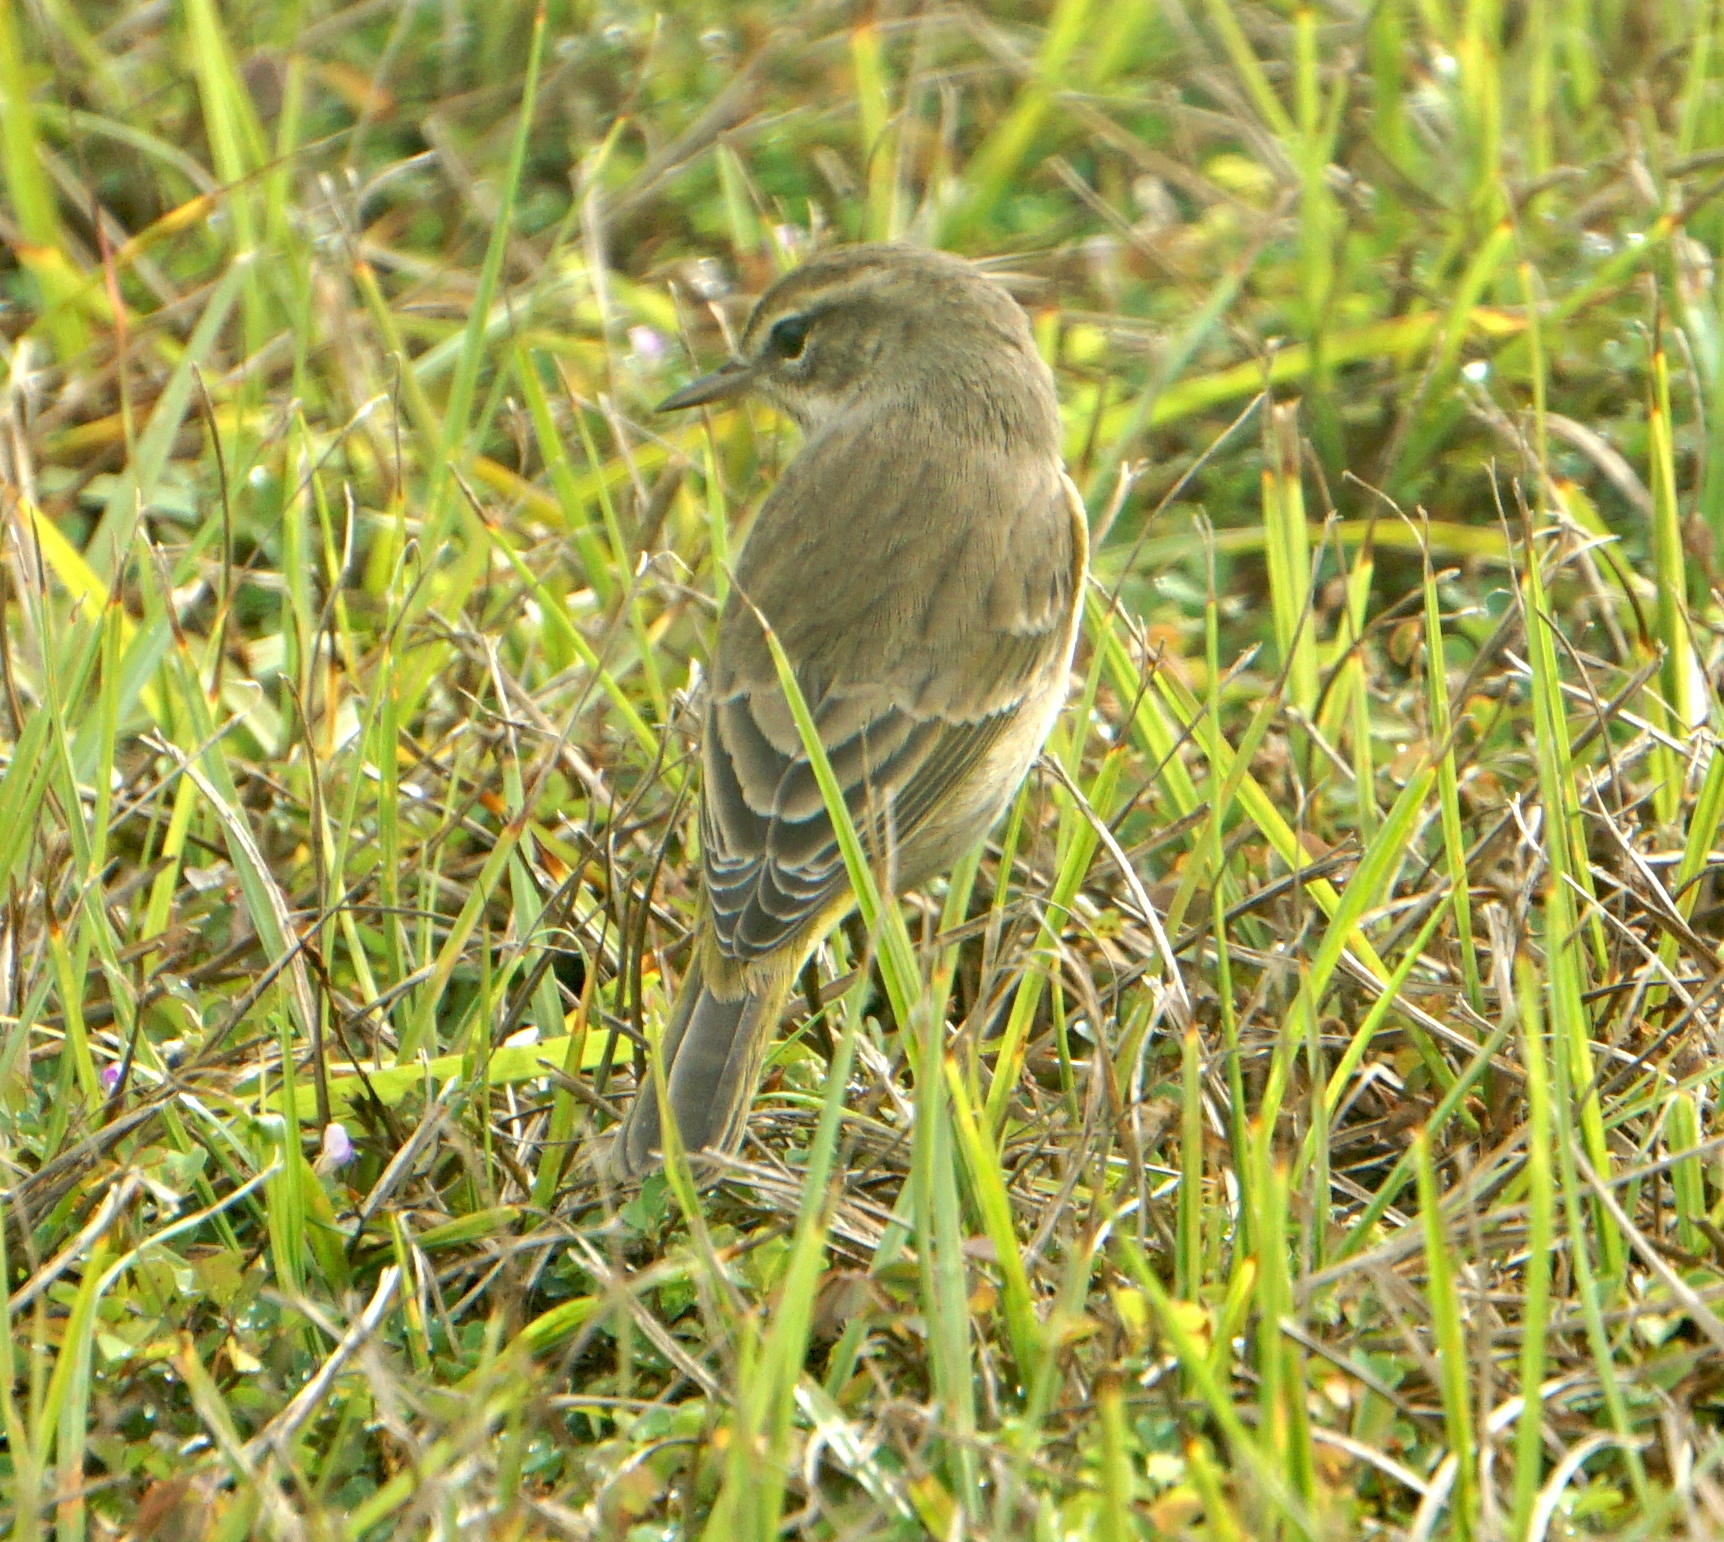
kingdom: Animalia
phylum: Chordata
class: Aves
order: Passeriformes
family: Parulidae
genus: Setophaga
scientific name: Setophaga palmarum
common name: Palm warbler
